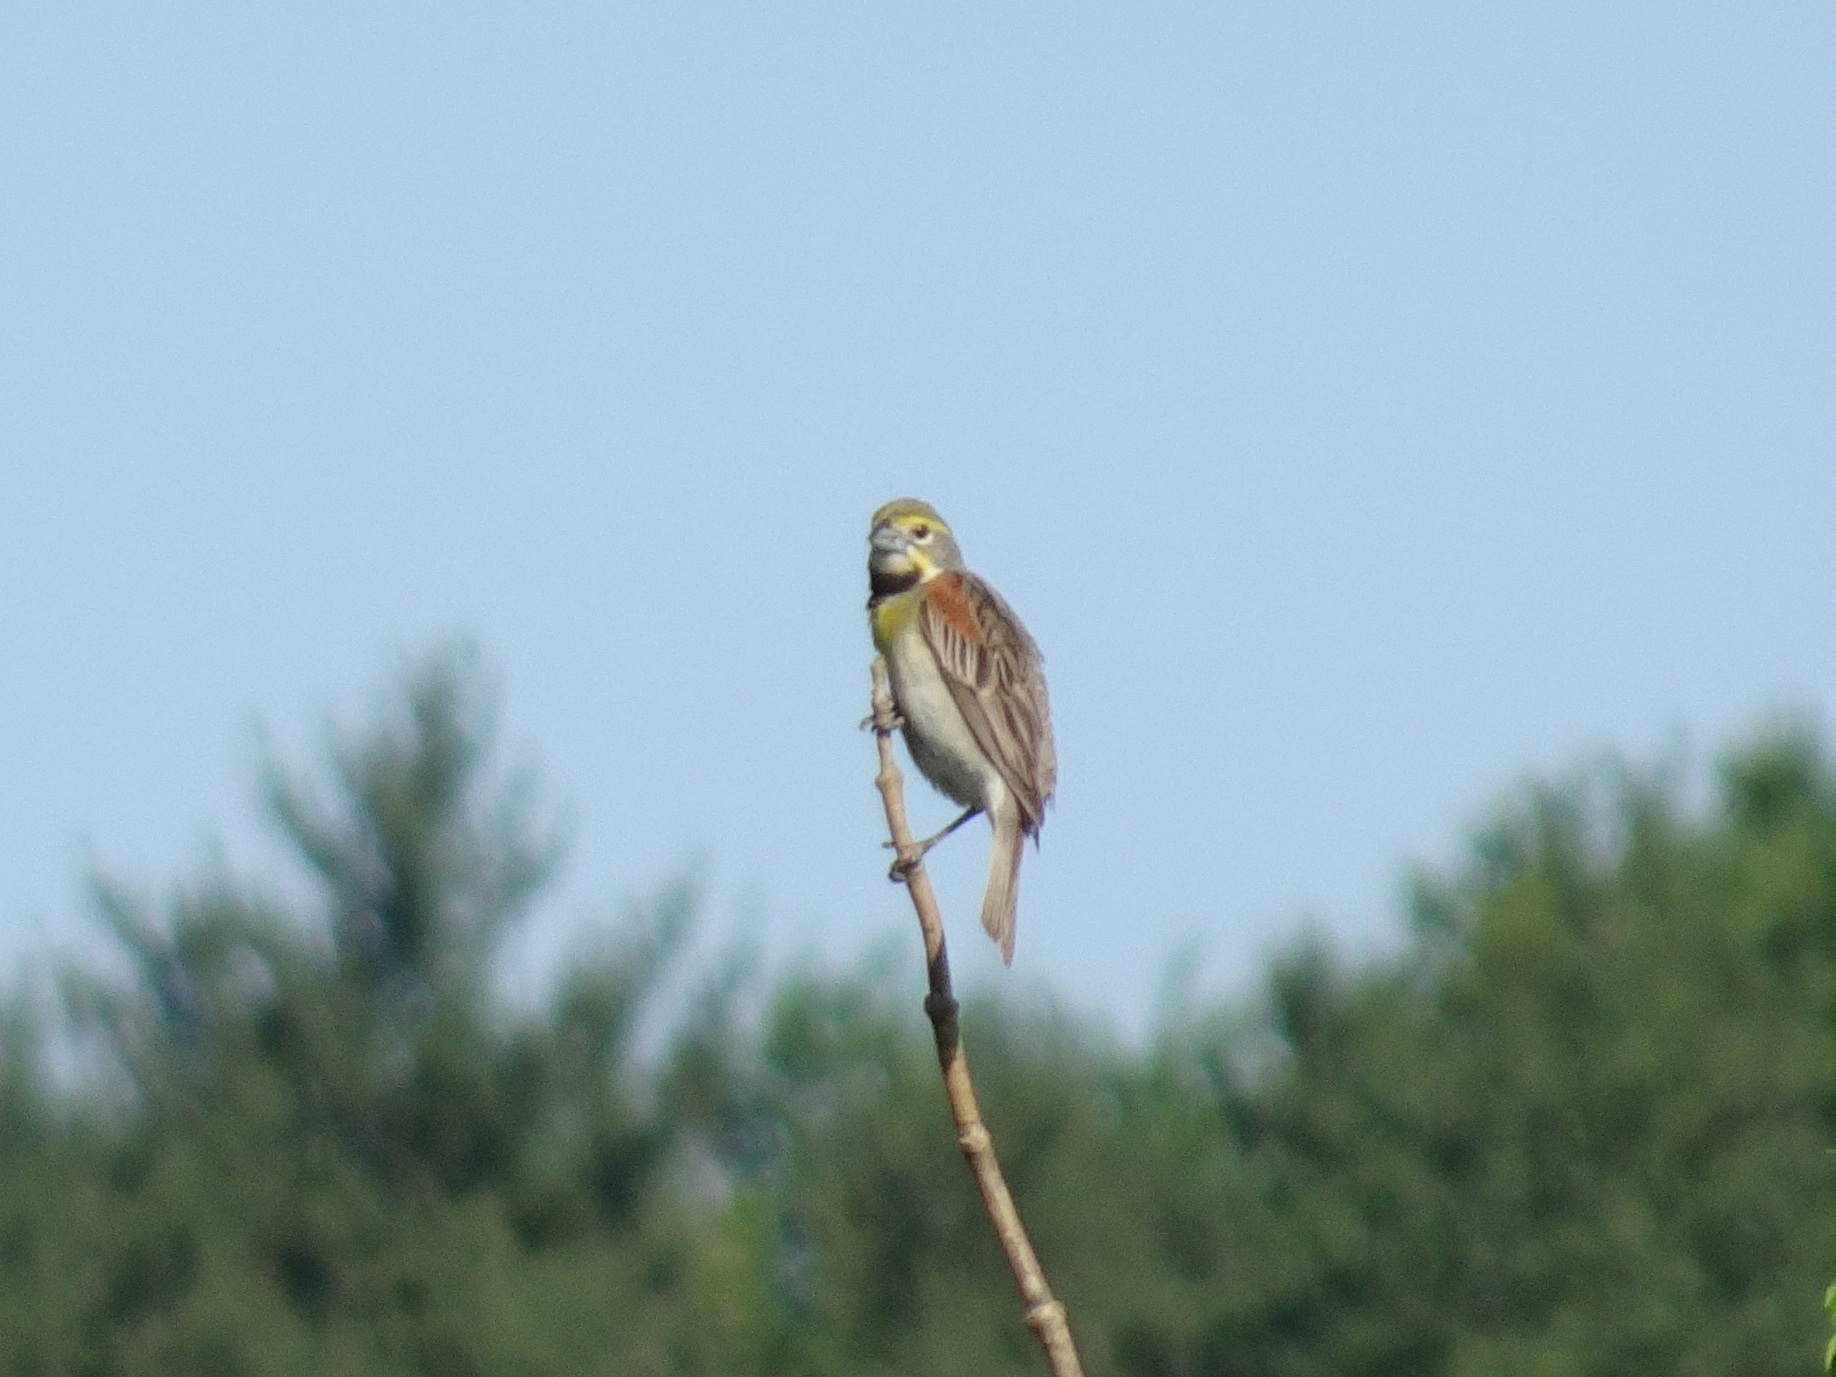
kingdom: Animalia
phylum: Chordata
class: Aves
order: Passeriformes
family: Cardinalidae
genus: Spiza
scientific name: Spiza americana
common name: Dickcissel
